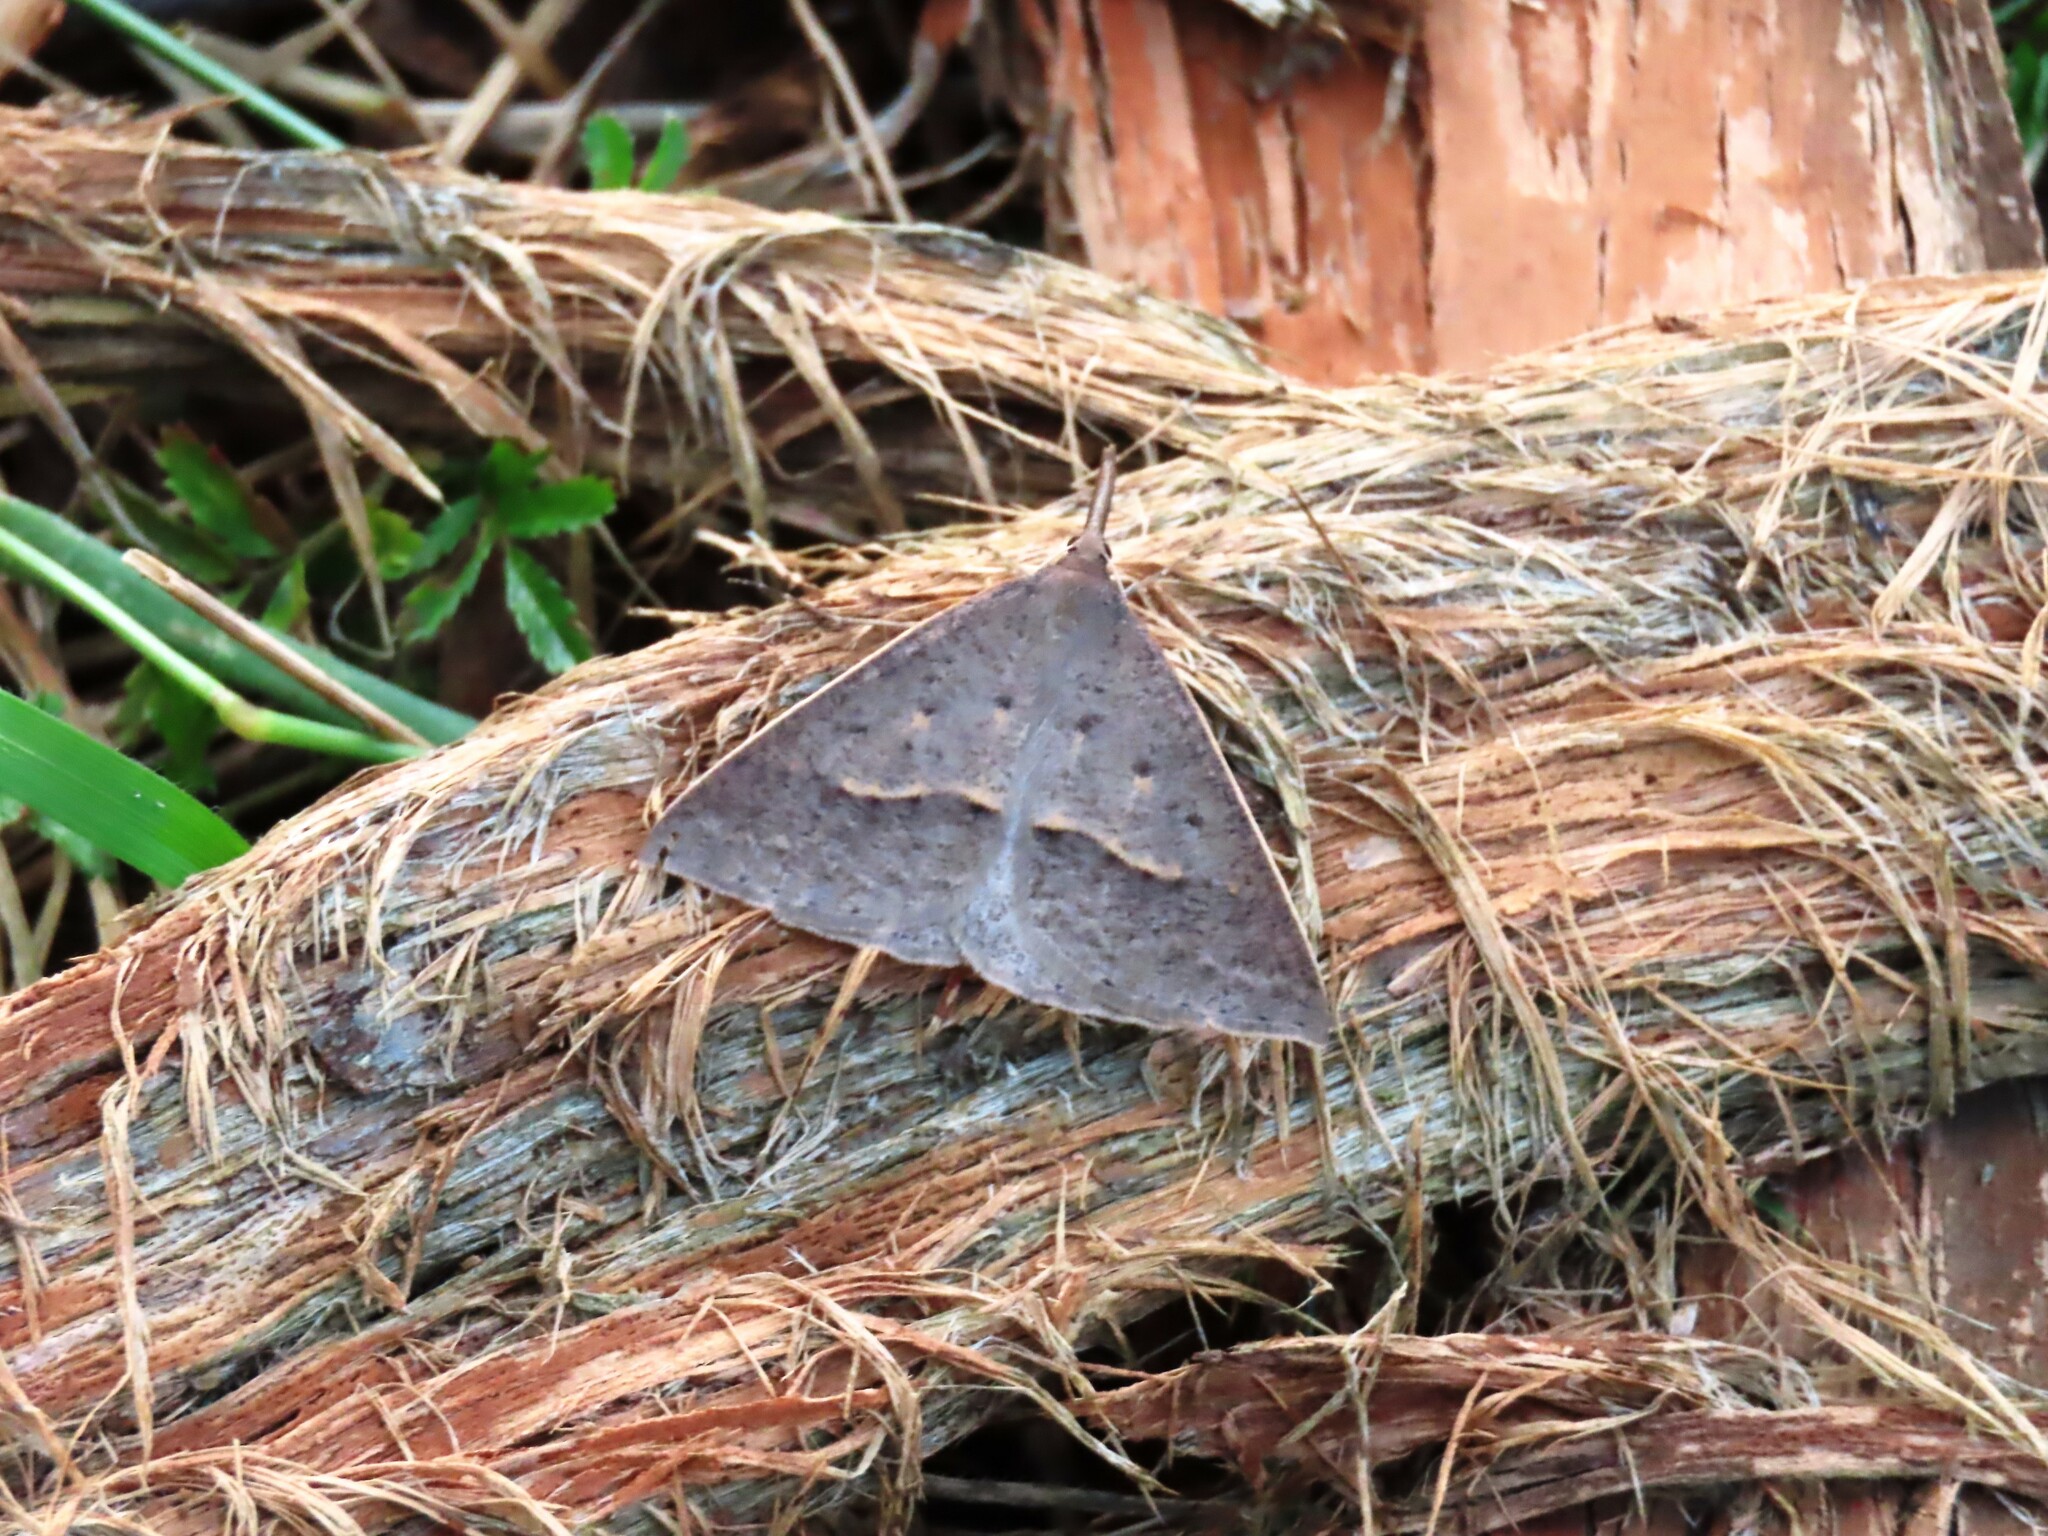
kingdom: Animalia
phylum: Arthropoda
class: Insecta
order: Lepidoptera
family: Geometridae
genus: Epidesmia
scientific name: Epidesmia hypenaria
